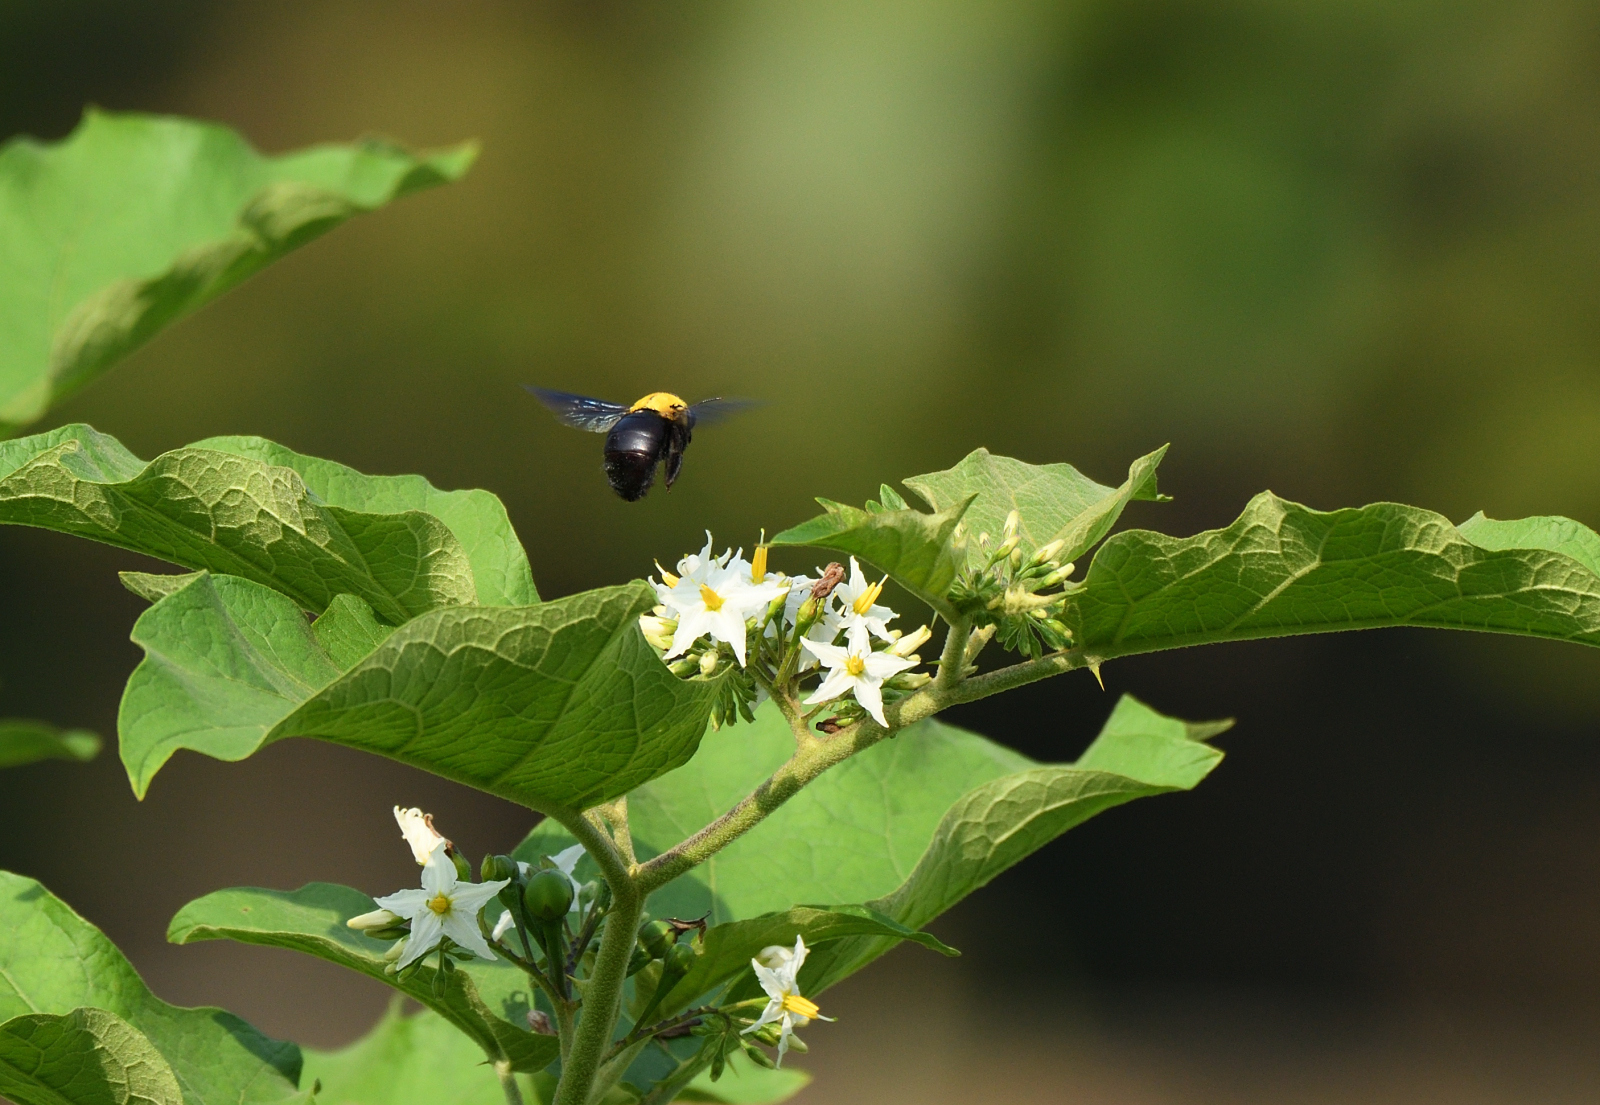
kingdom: Animalia
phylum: Arthropoda
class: Insecta
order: Hymenoptera
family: Apidae
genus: Xylocopa
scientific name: Xylocopa ruficornis
